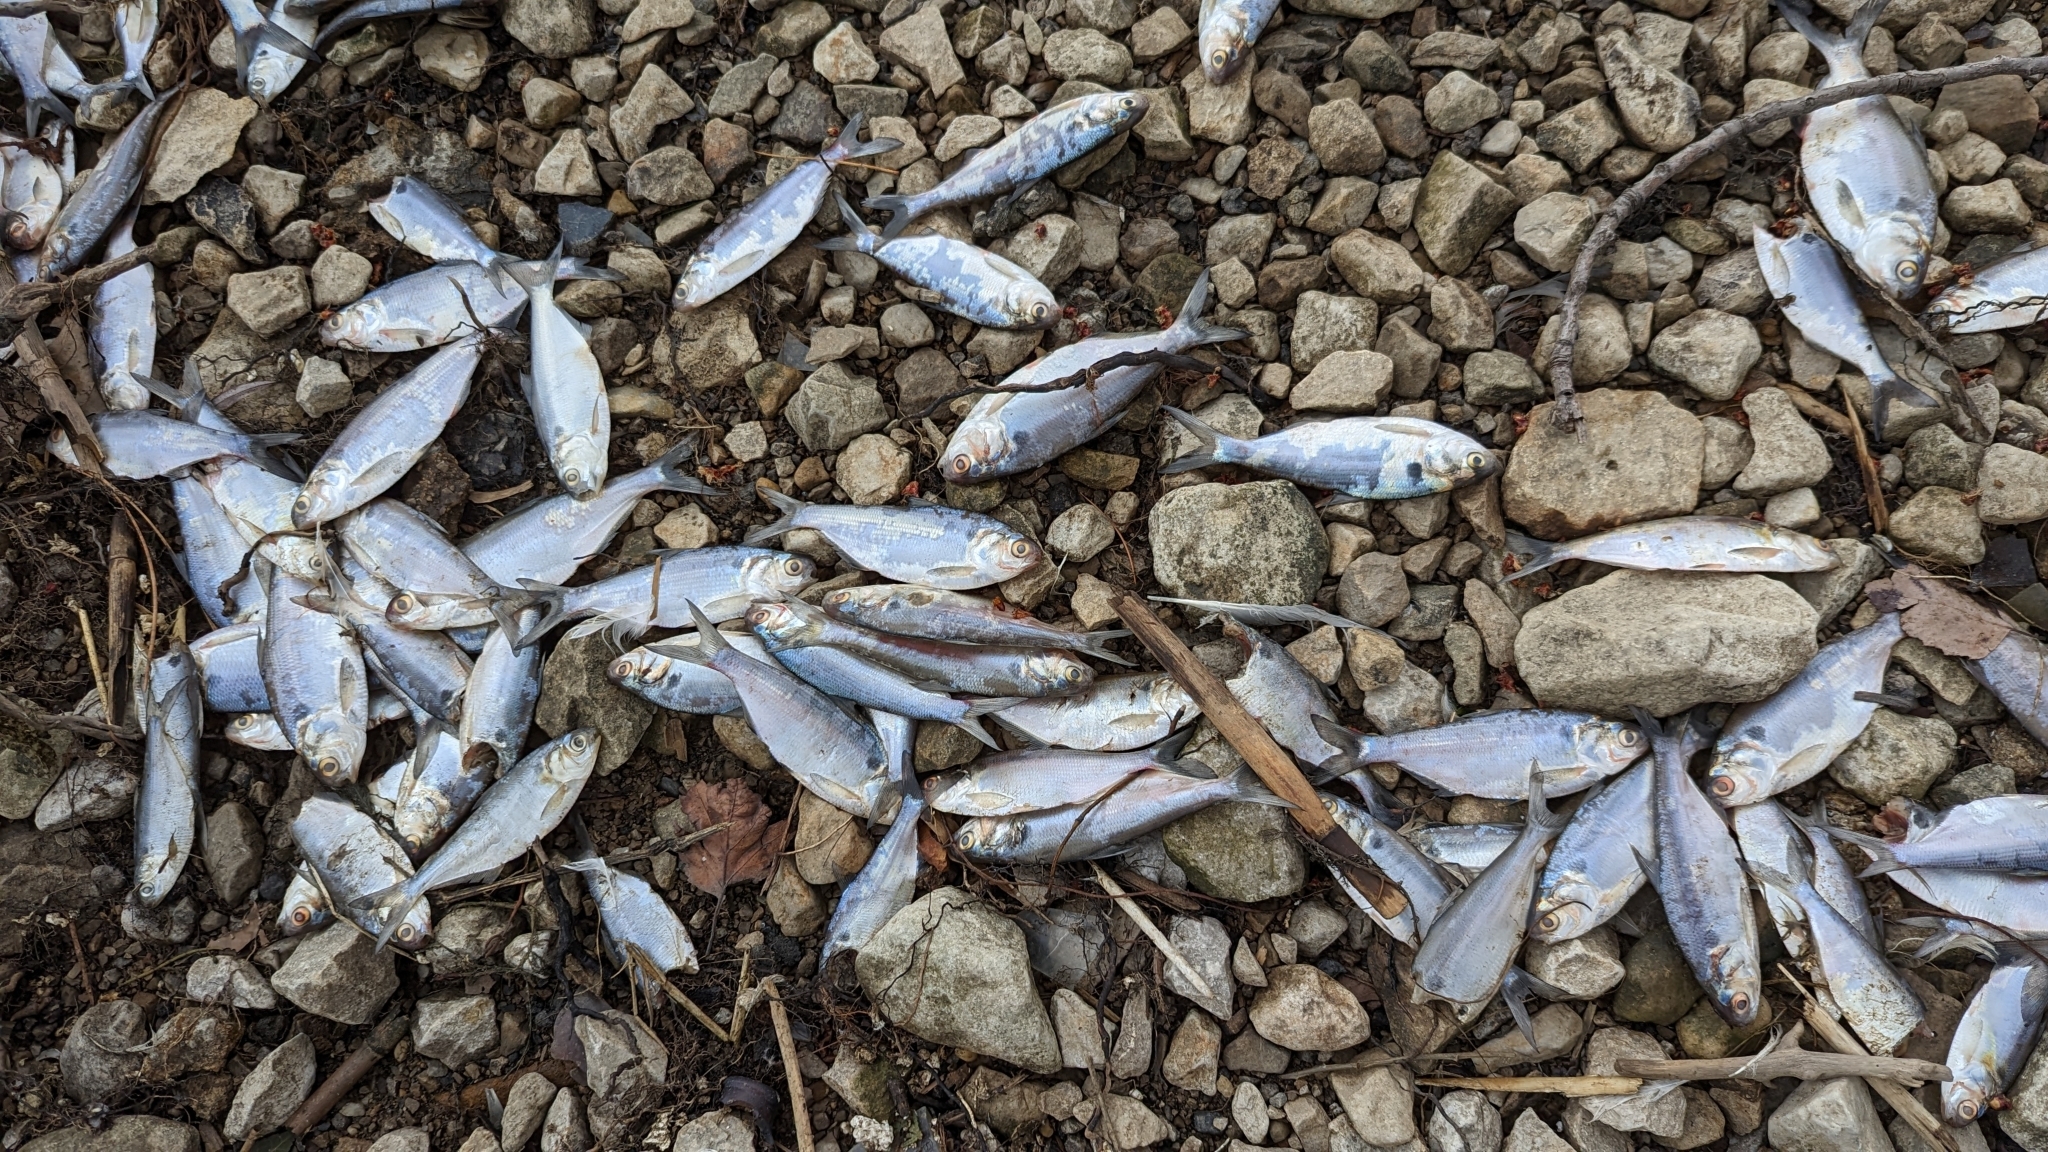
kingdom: Animalia
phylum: Chordata
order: Clupeiformes
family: Clupeidae
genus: Dorosoma
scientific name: Dorosoma cepedianum
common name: Gizzard shad
